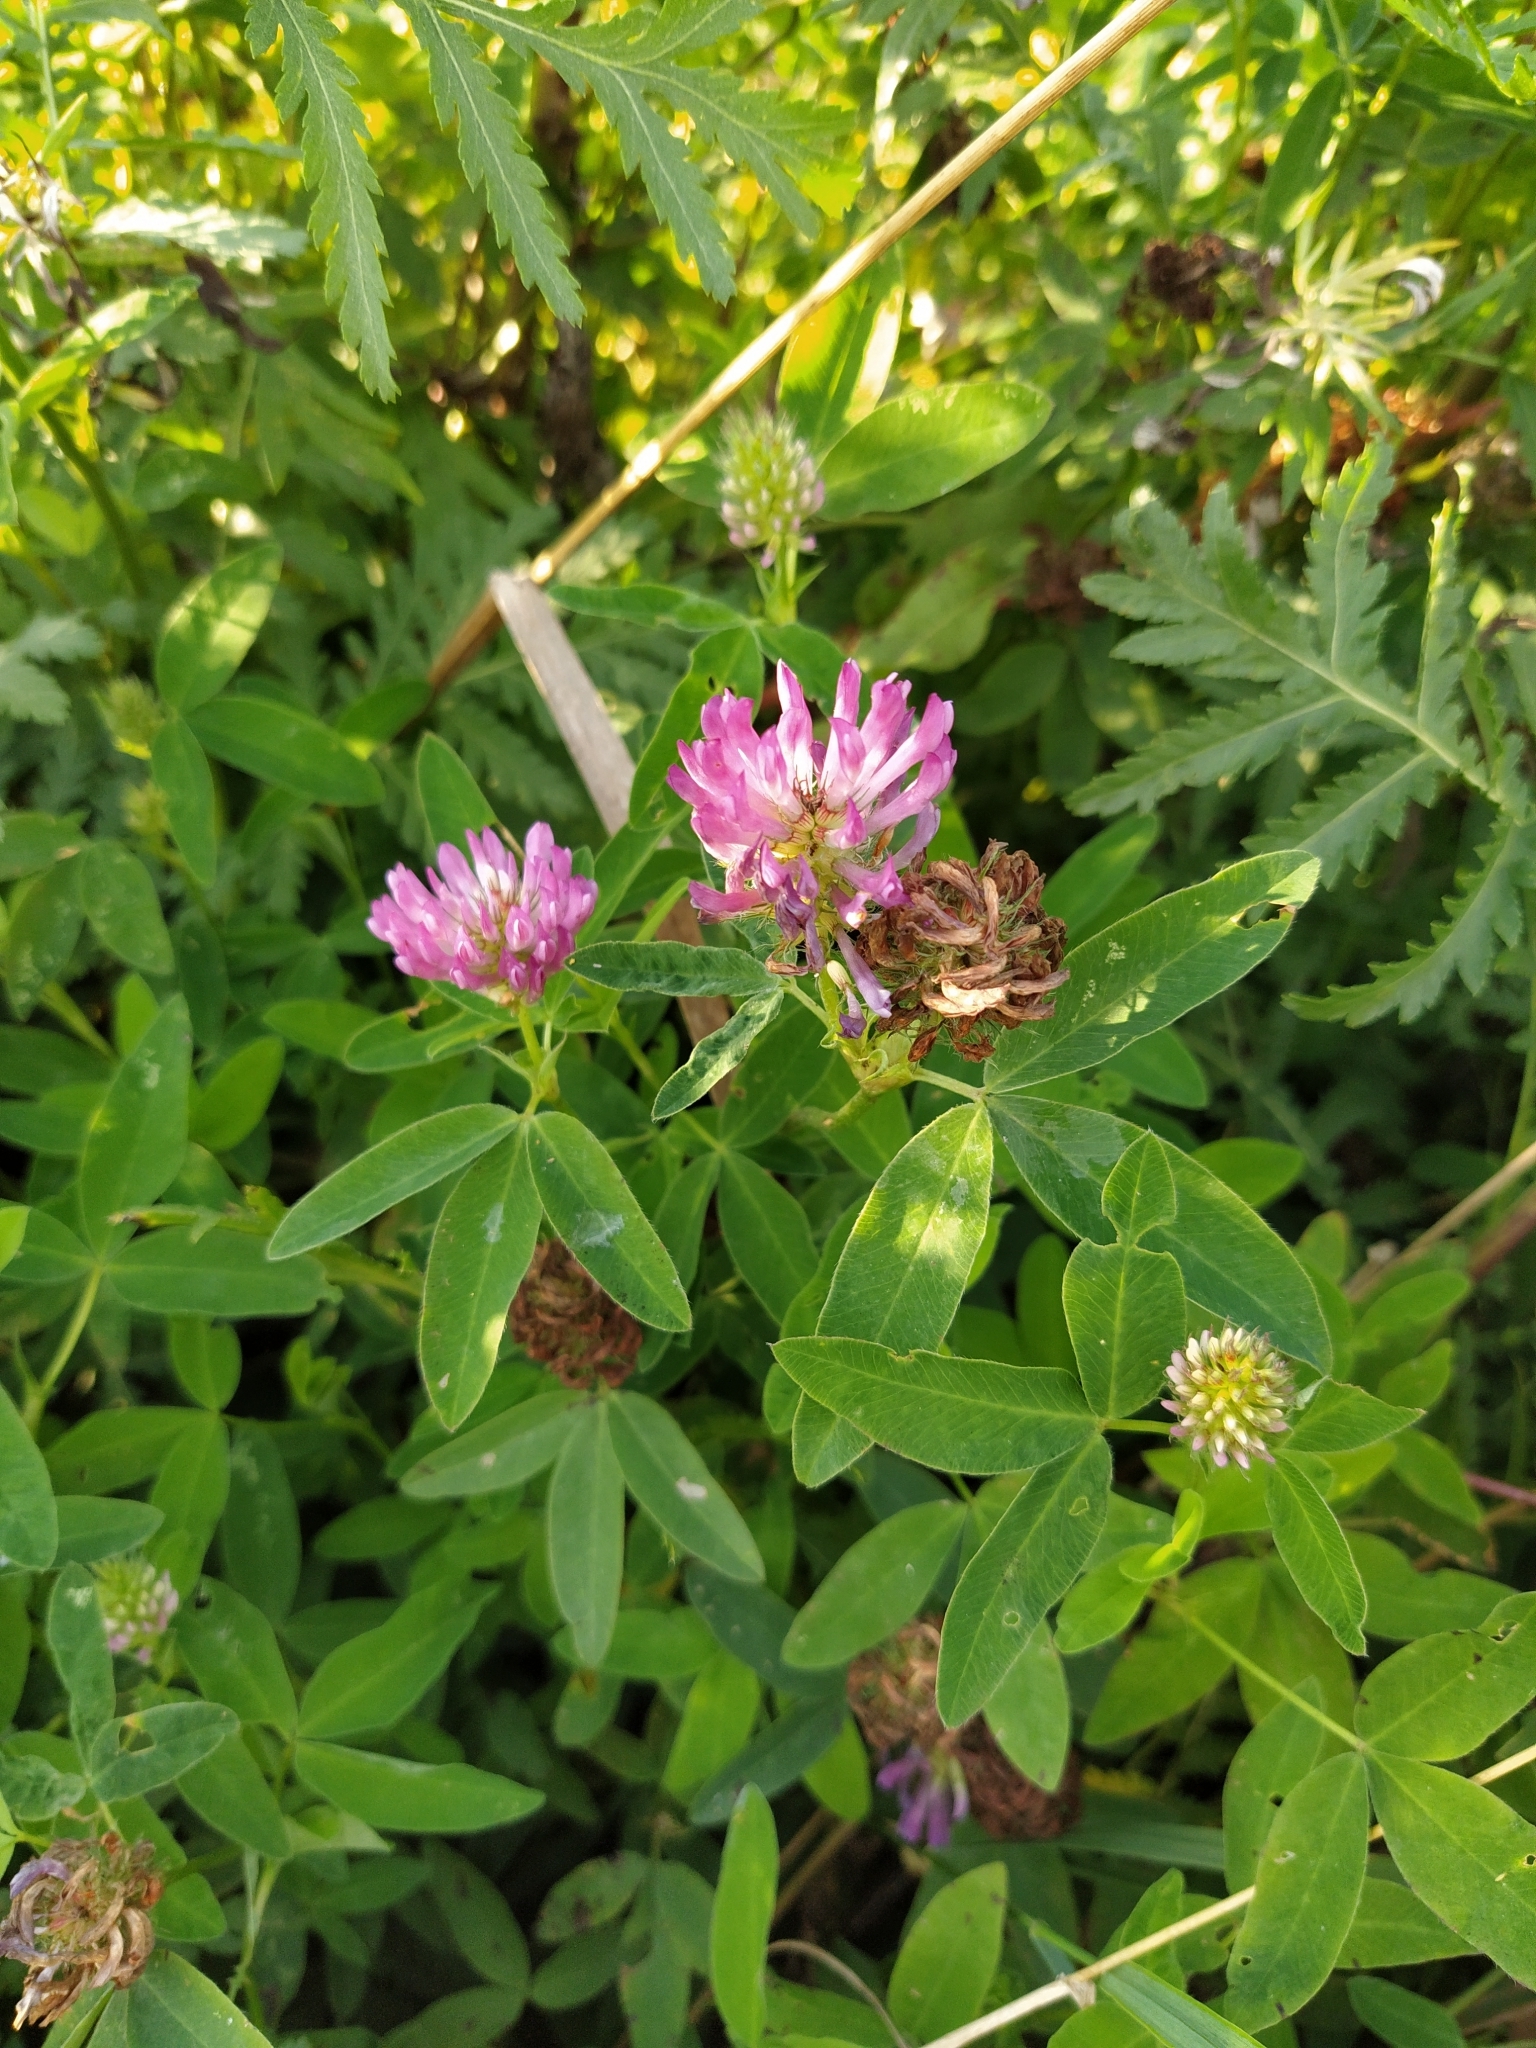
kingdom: Plantae
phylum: Tracheophyta
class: Magnoliopsida
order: Fabales
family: Fabaceae
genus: Trifolium
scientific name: Trifolium medium
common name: Zigzag clover
